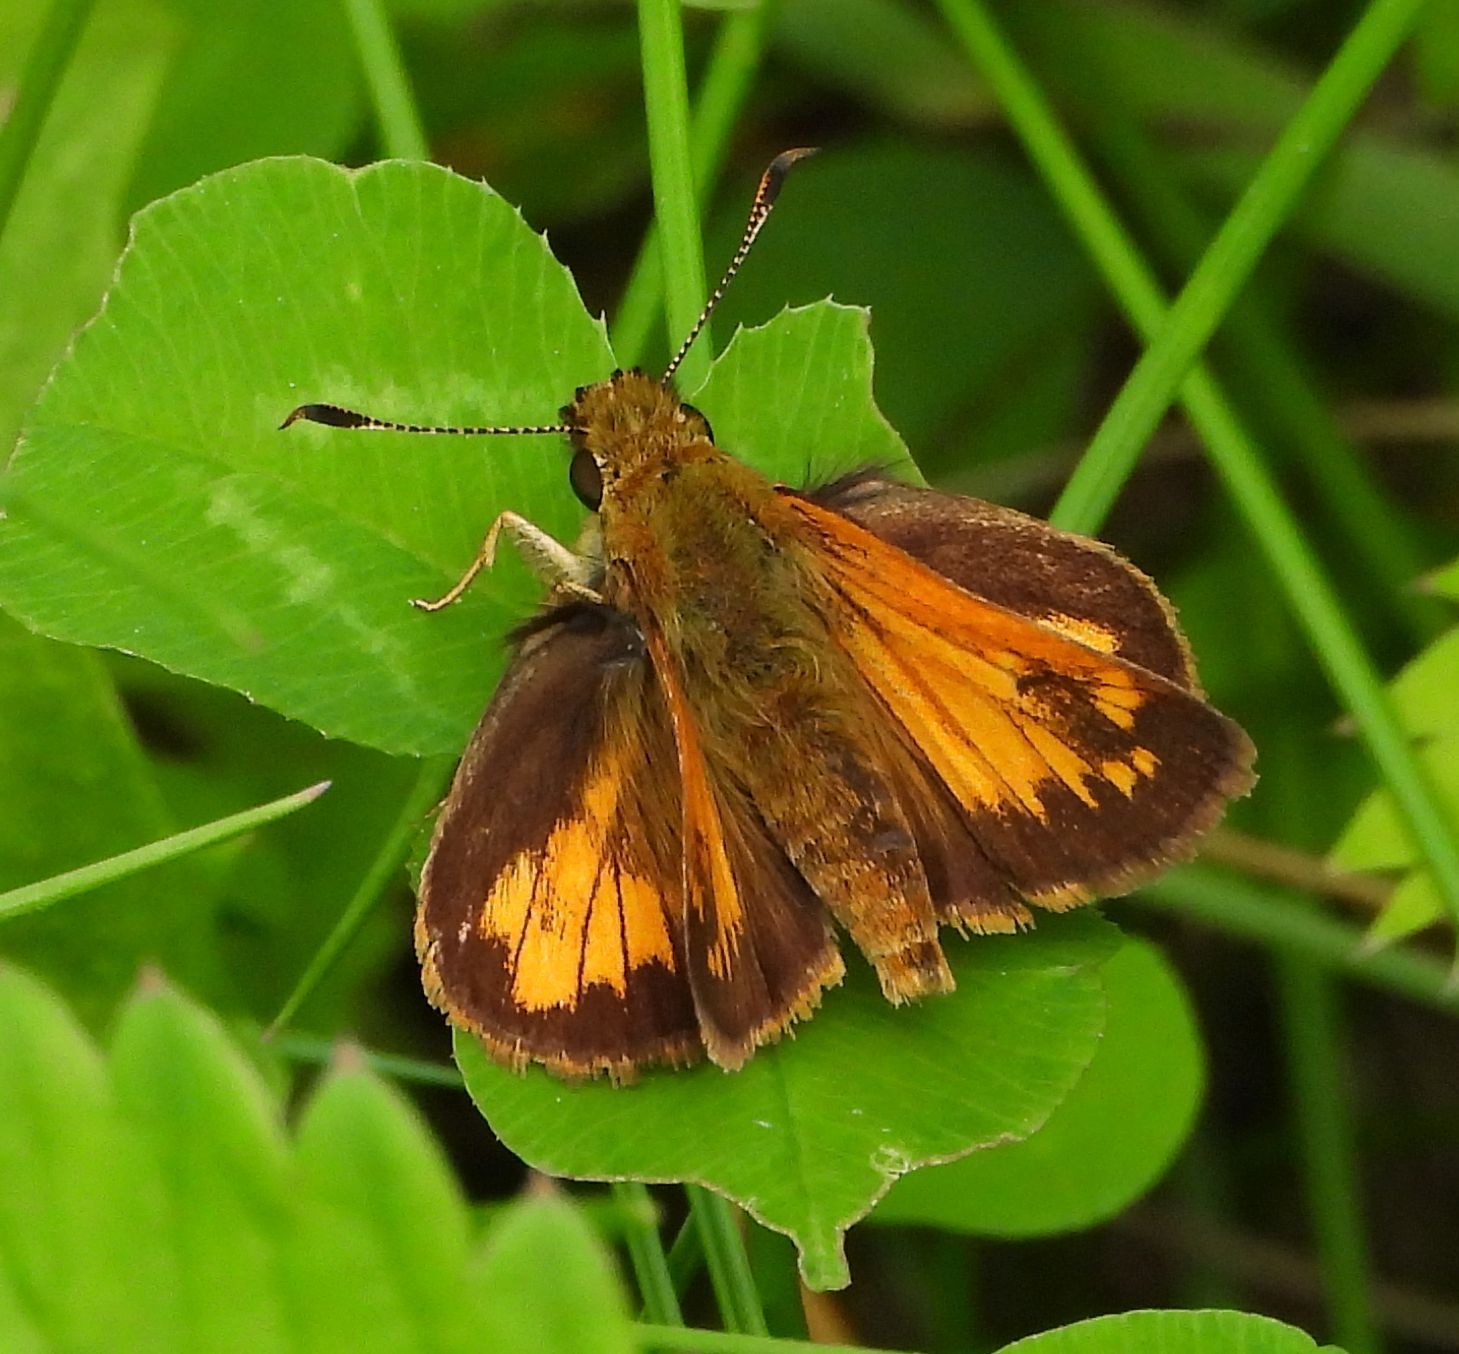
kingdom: Animalia
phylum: Arthropoda
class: Insecta
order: Lepidoptera
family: Hesperiidae
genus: Lon
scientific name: Lon hobomok
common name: Hobomok skipper
